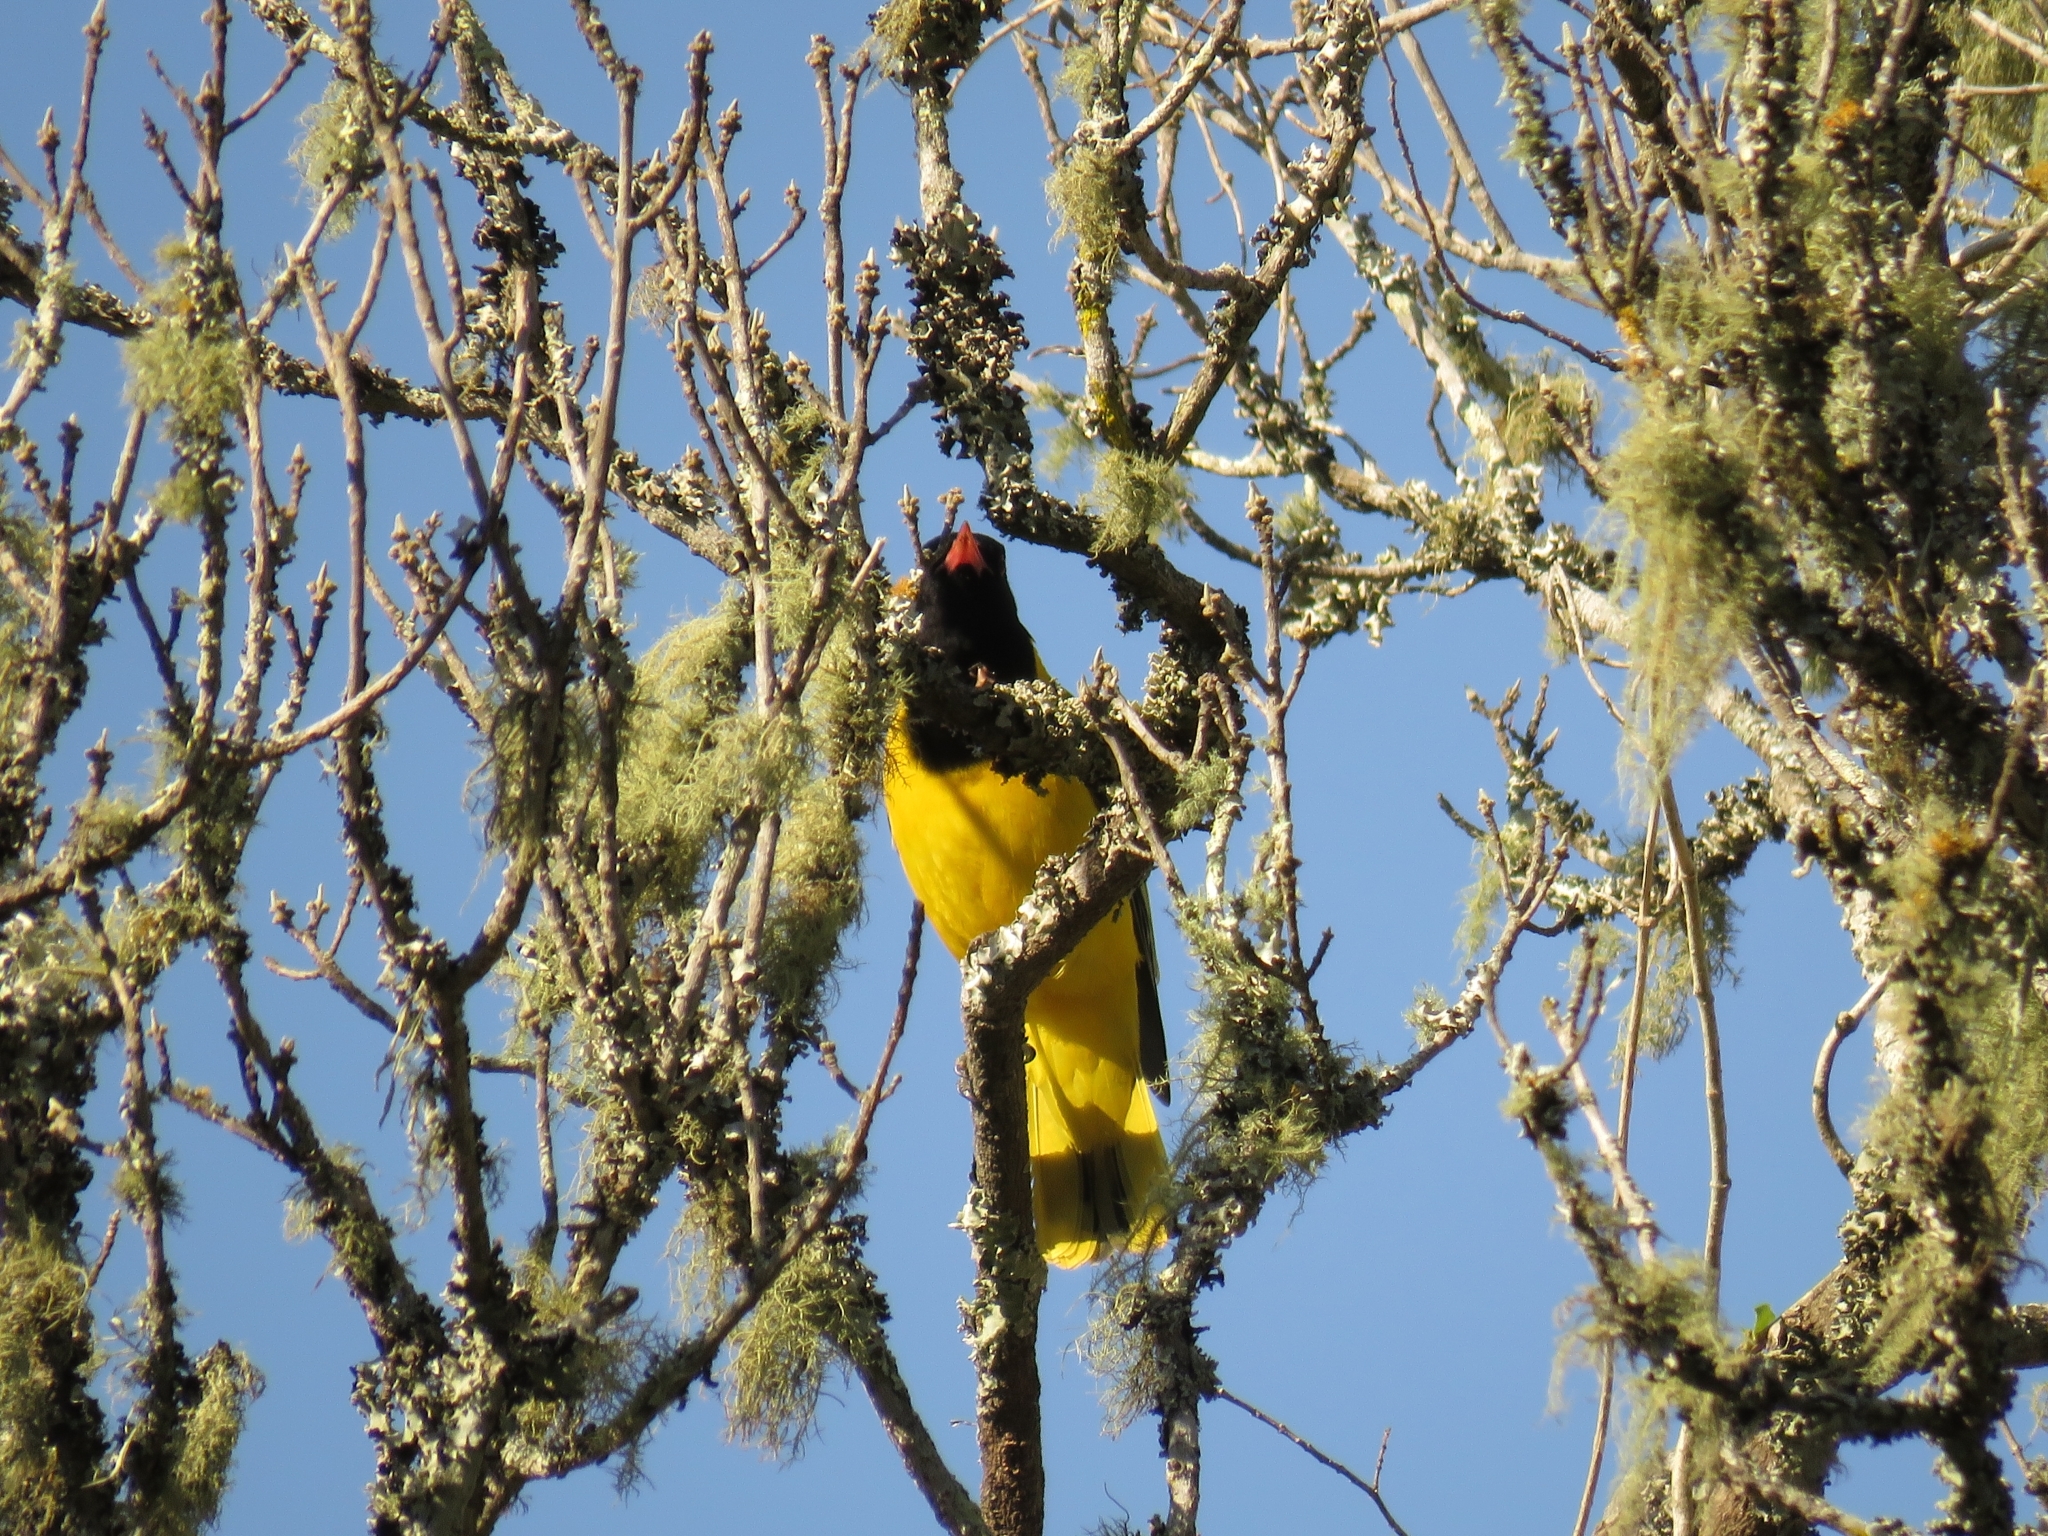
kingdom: Animalia
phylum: Chordata
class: Aves
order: Passeriformes
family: Oriolidae
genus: Oriolus
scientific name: Oriolus larvatus
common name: Black-headed oriole
